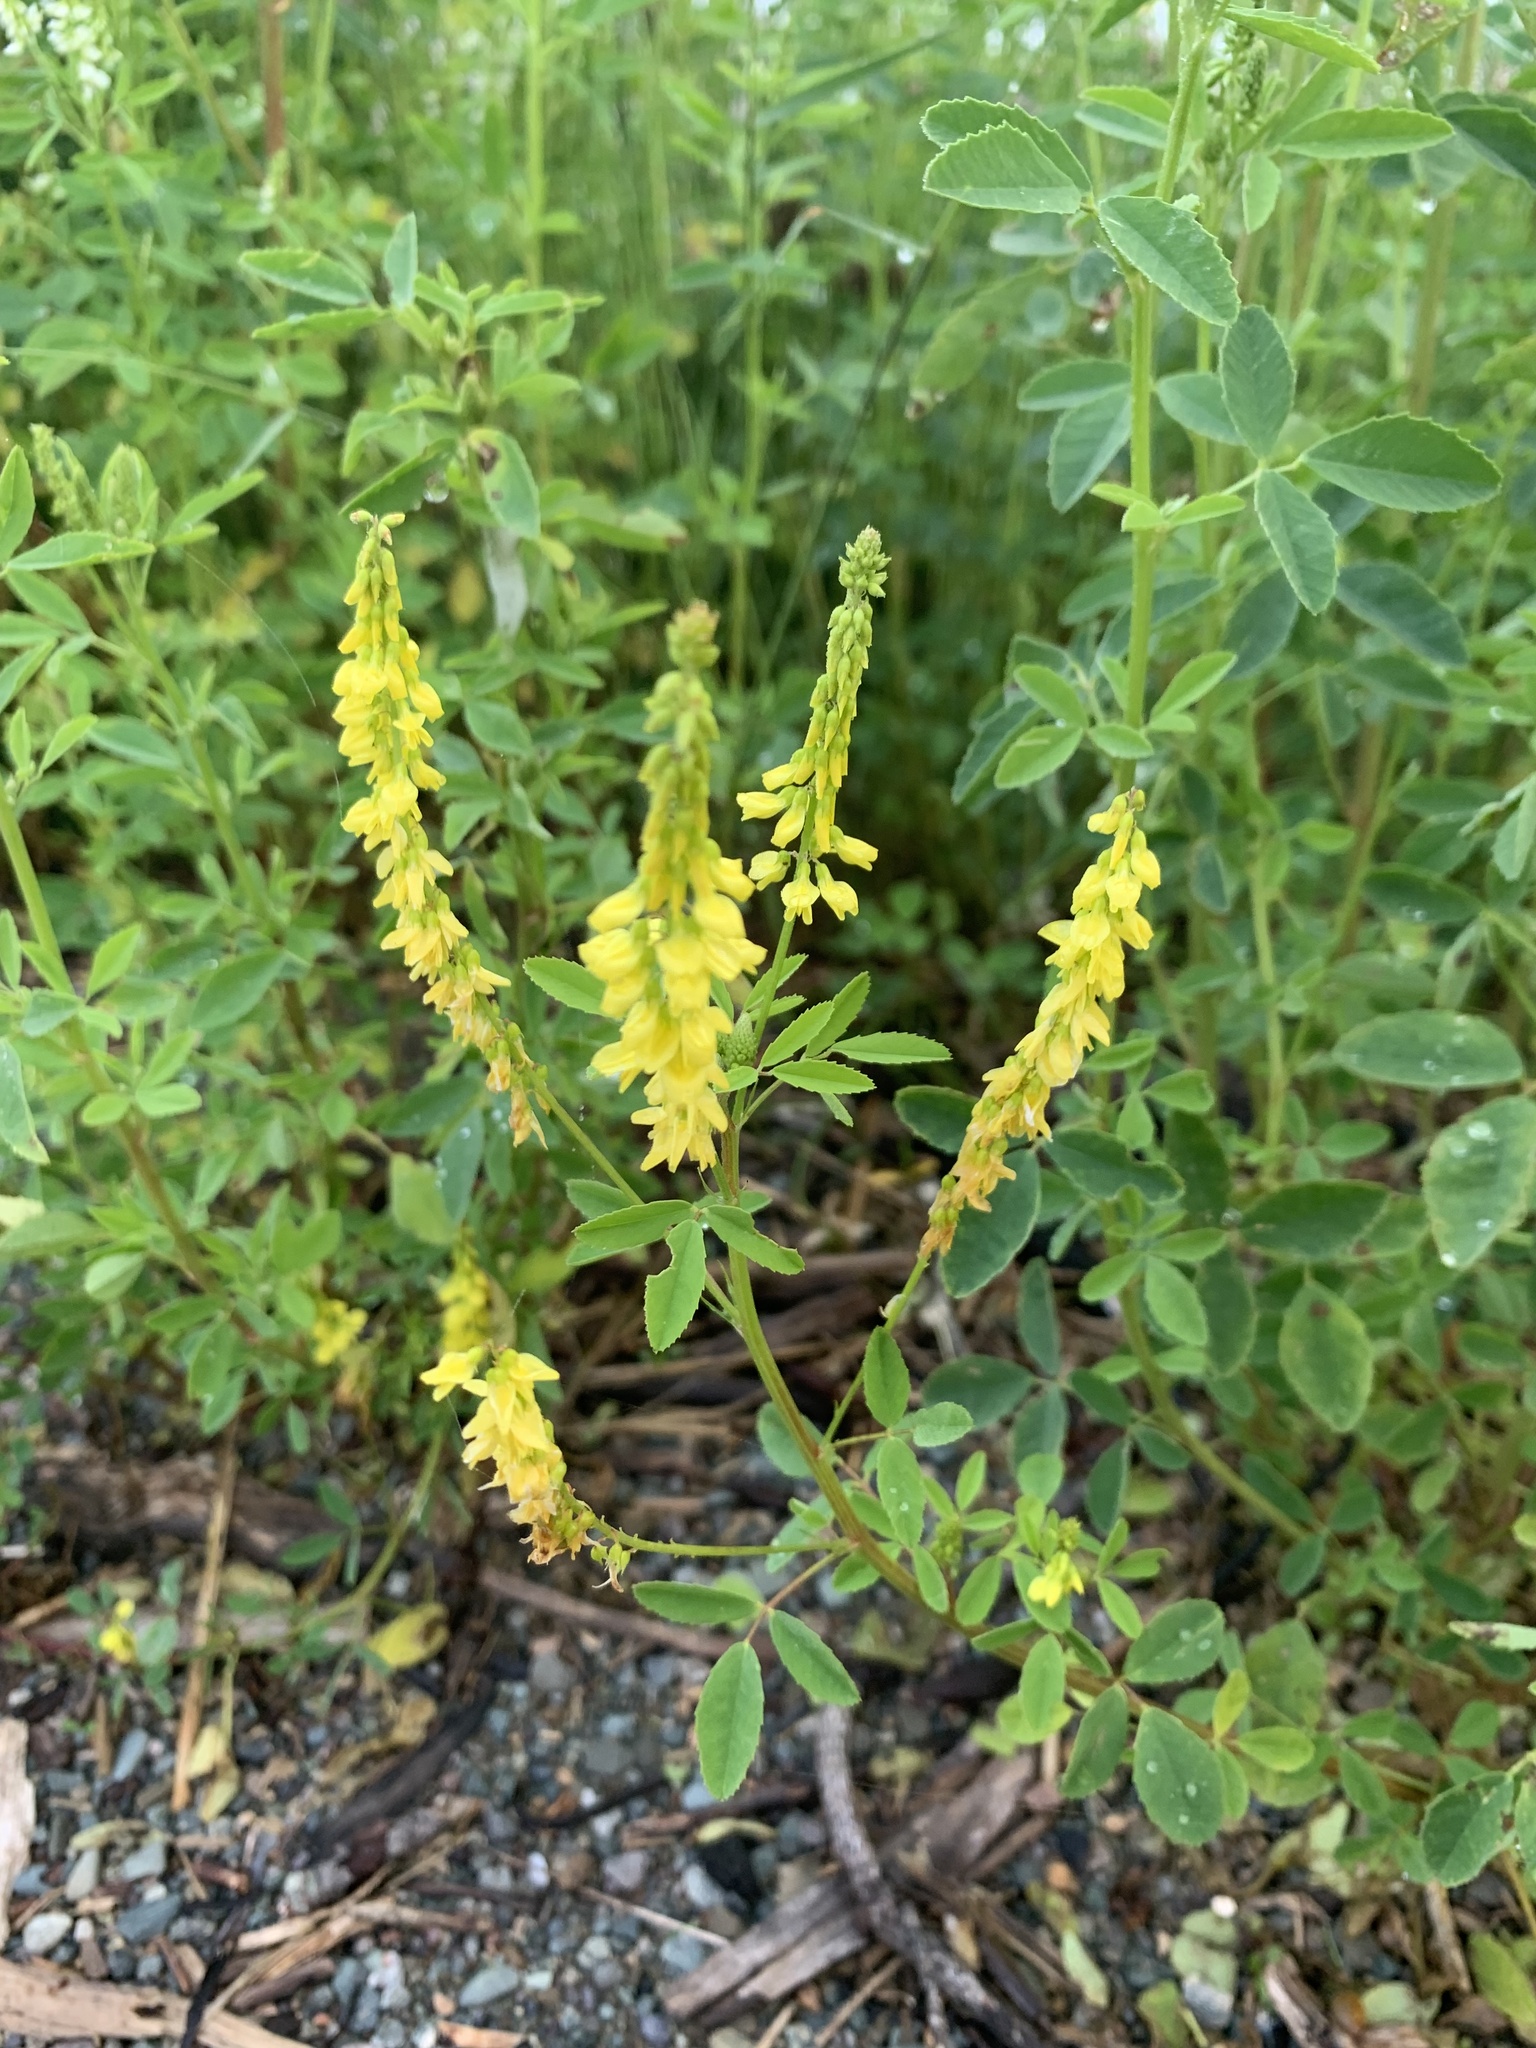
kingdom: Plantae
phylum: Tracheophyta
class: Magnoliopsida
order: Fabales
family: Fabaceae
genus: Melilotus
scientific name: Melilotus officinalis
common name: Sweetclover
